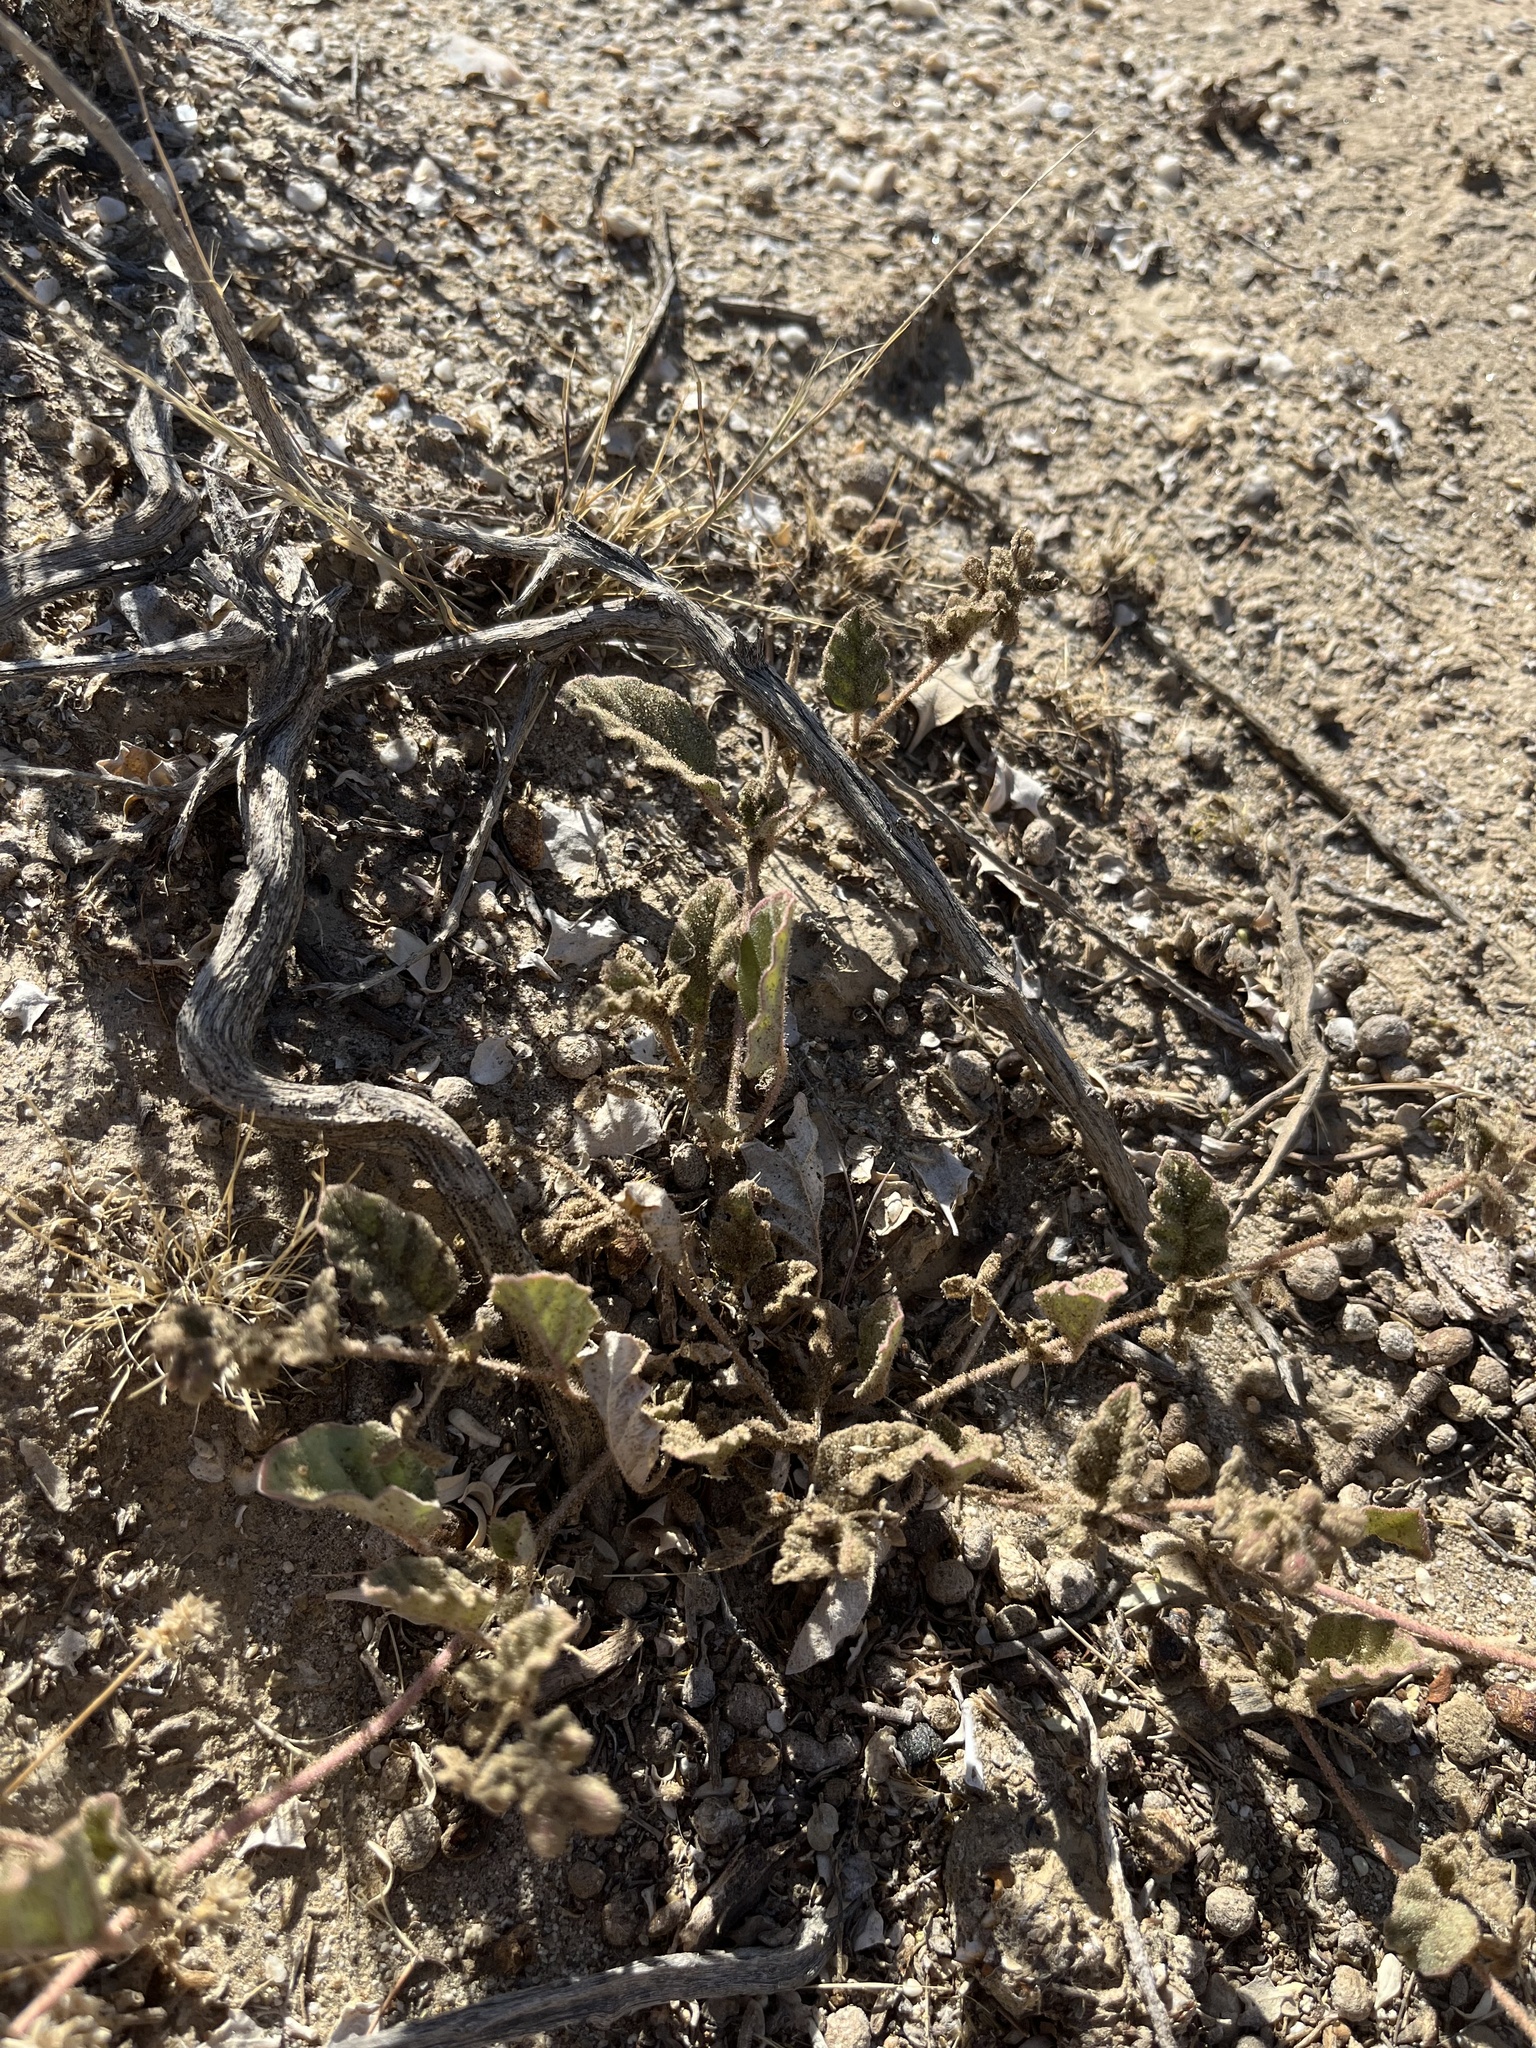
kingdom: Plantae
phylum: Tracheophyta
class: Magnoliopsida
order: Caryophyllales
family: Nyctaginaceae
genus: Boerhavia
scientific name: Boerhavia triquetra
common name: Creeping sticky-stem
